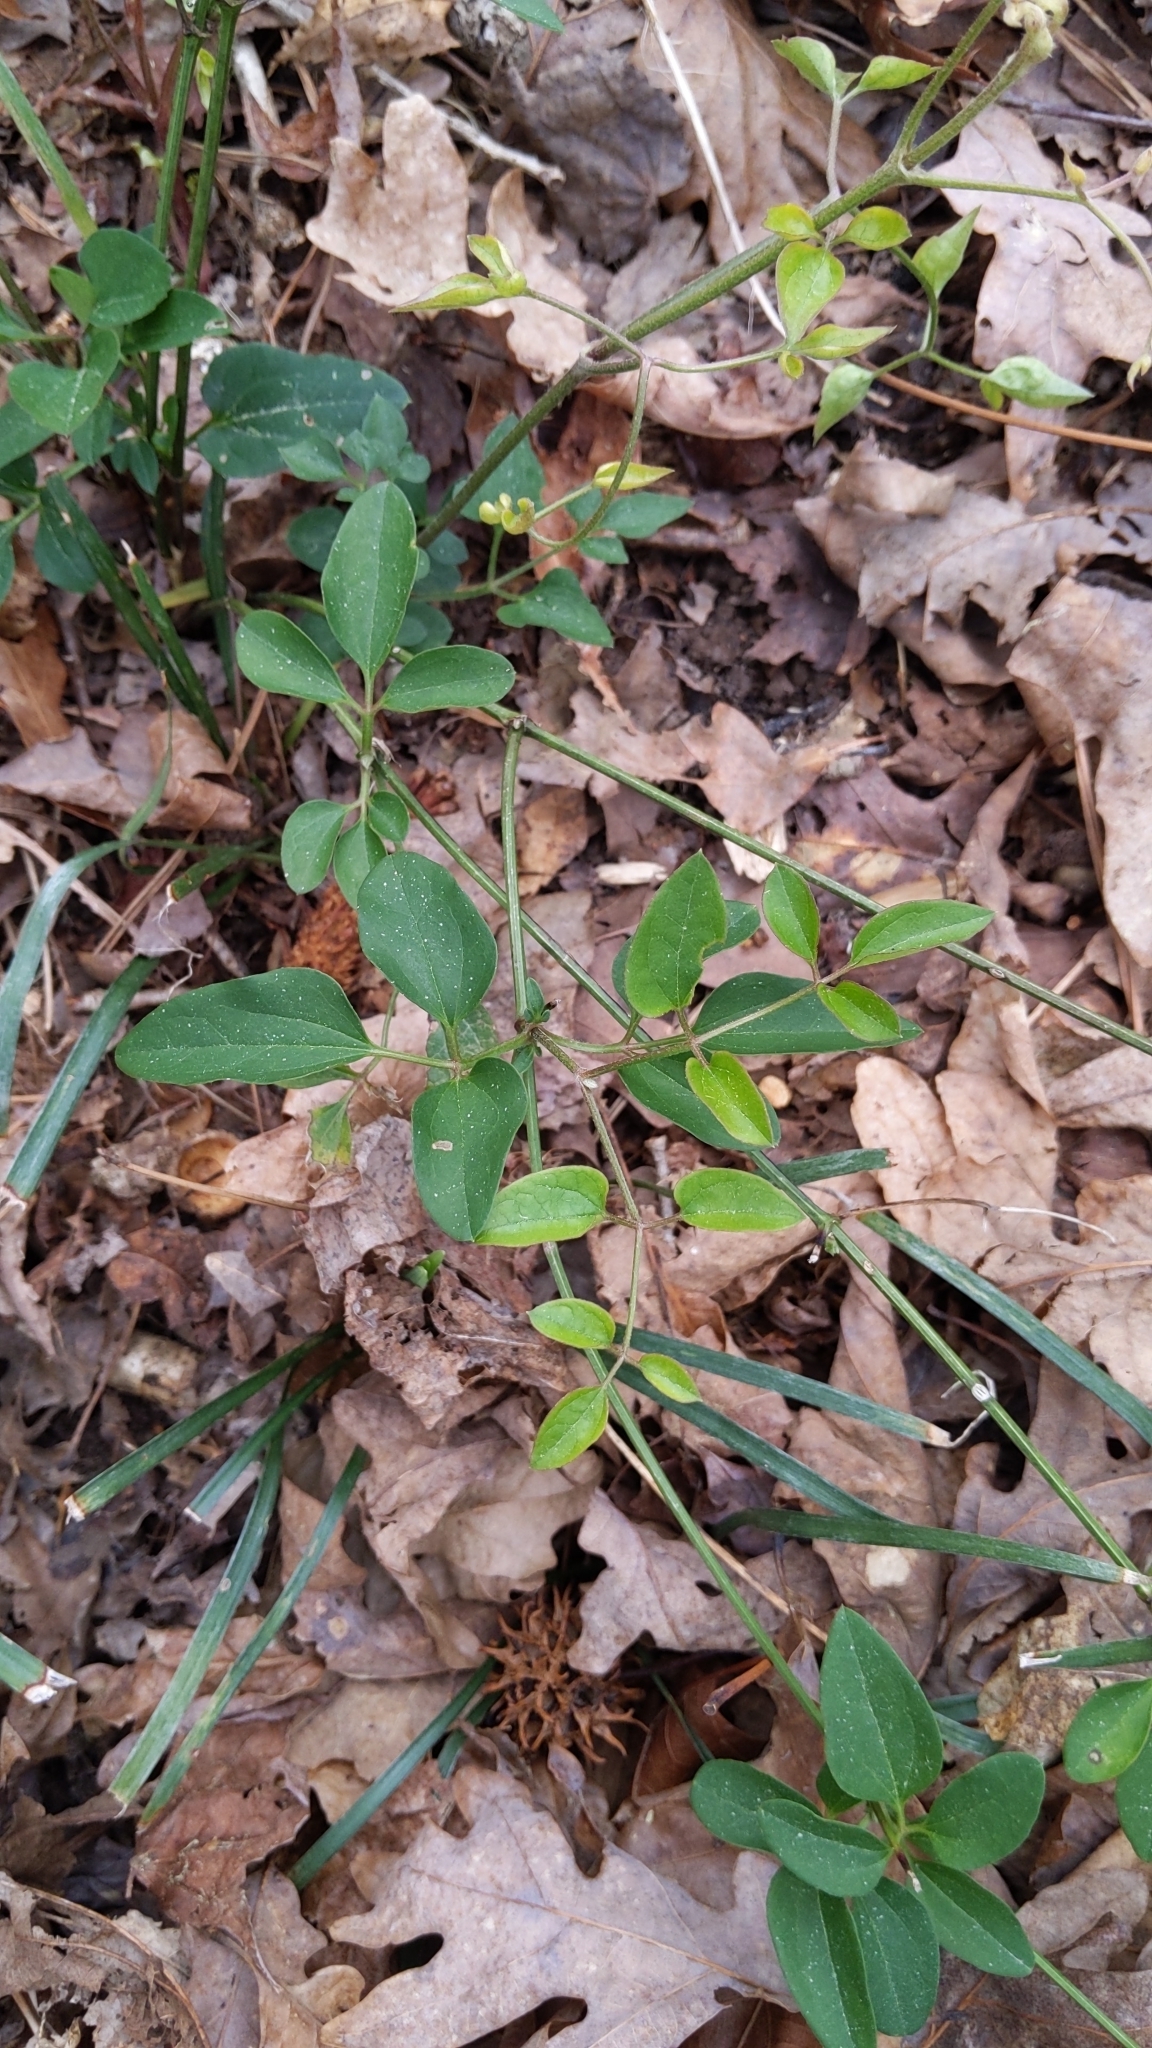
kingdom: Plantae
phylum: Tracheophyta
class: Magnoliopsida
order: Ranunculales
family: Ranunculaceae
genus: Clematis
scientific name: Clematis terniflora
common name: Sweet autumn clematis
